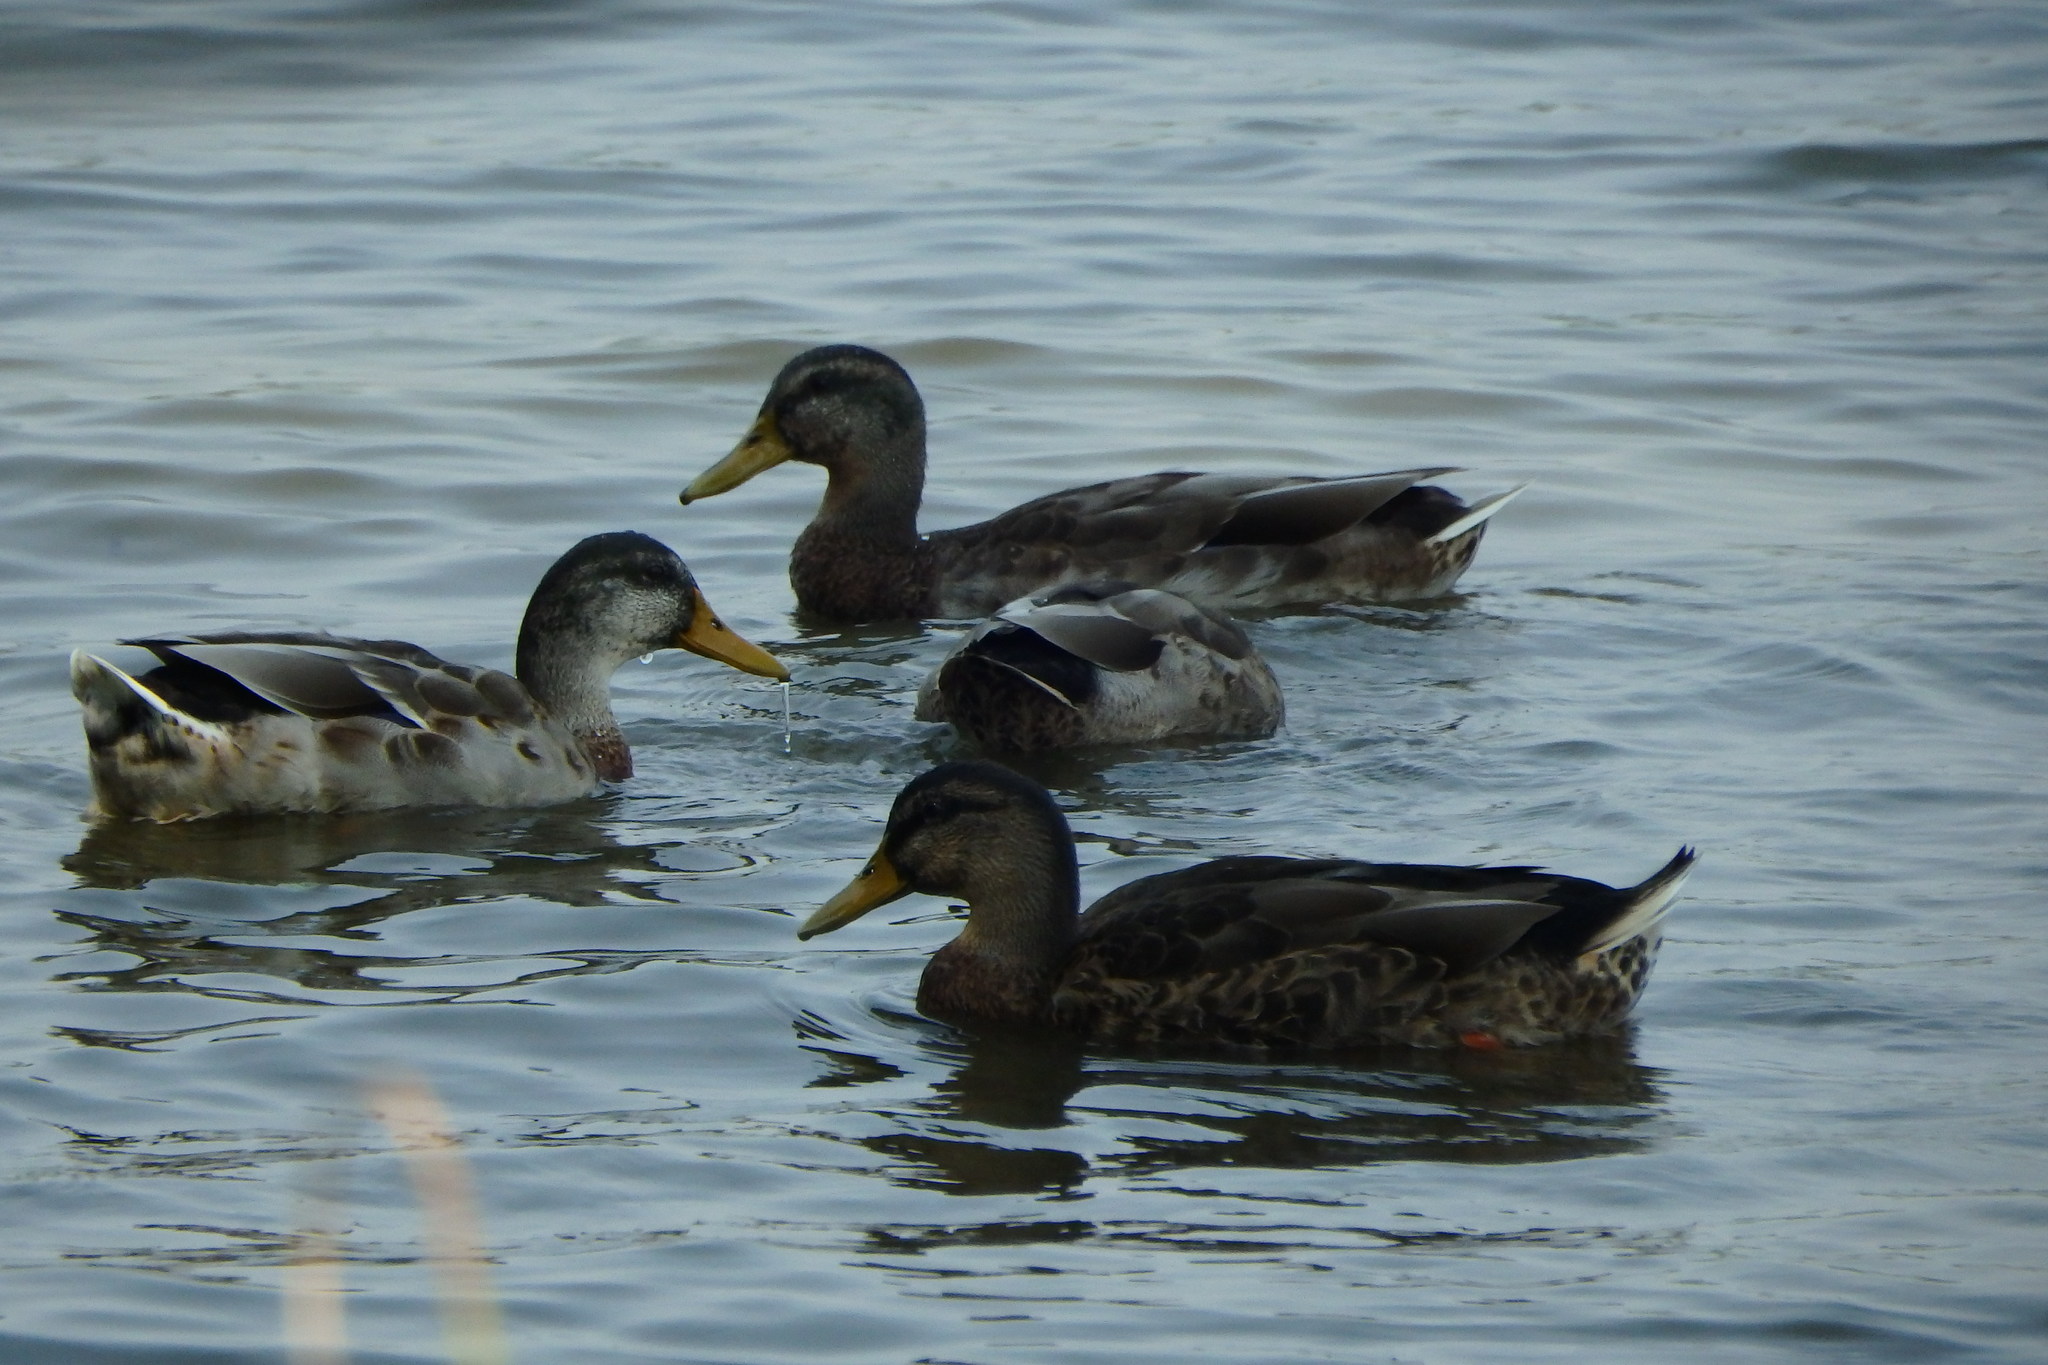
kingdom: Animalia
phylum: Chordata
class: Aves
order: Anseriformes
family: Anatidae
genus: Anas
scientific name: Anas platyrhynchos
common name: Mallard
